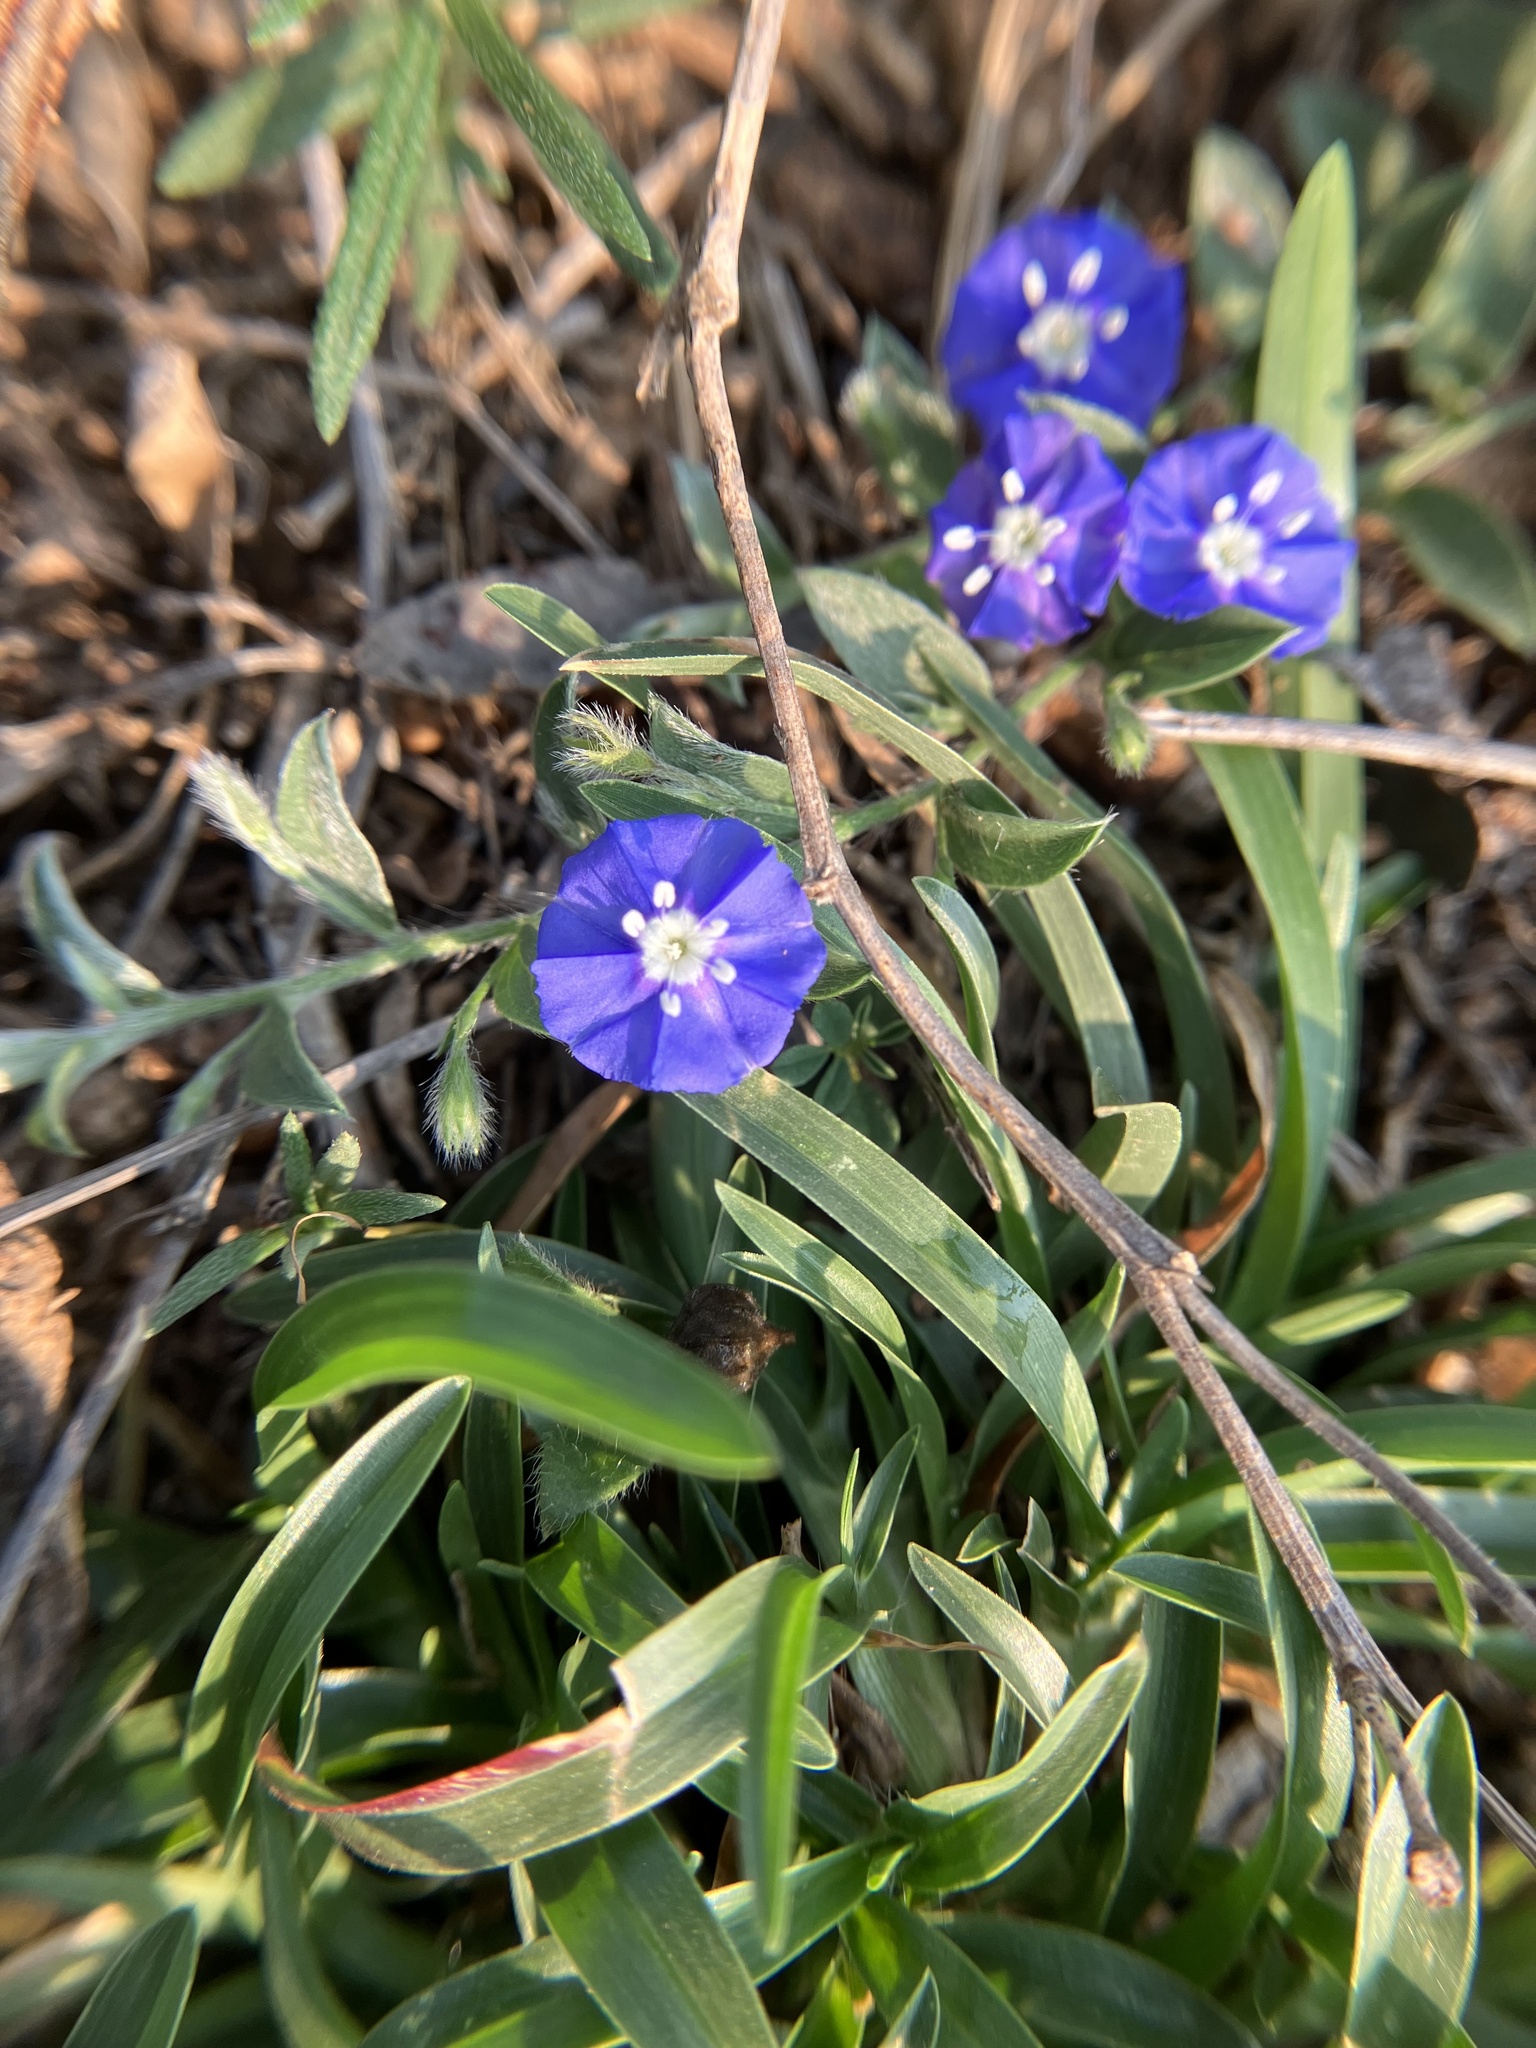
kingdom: Plantae
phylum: Tracheophyta
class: Magnoliopsida
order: Solanales
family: Convolvulaceae
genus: Evolvulus
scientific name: Evolvulus alsinoides
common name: Slender dwarf morning-glory
